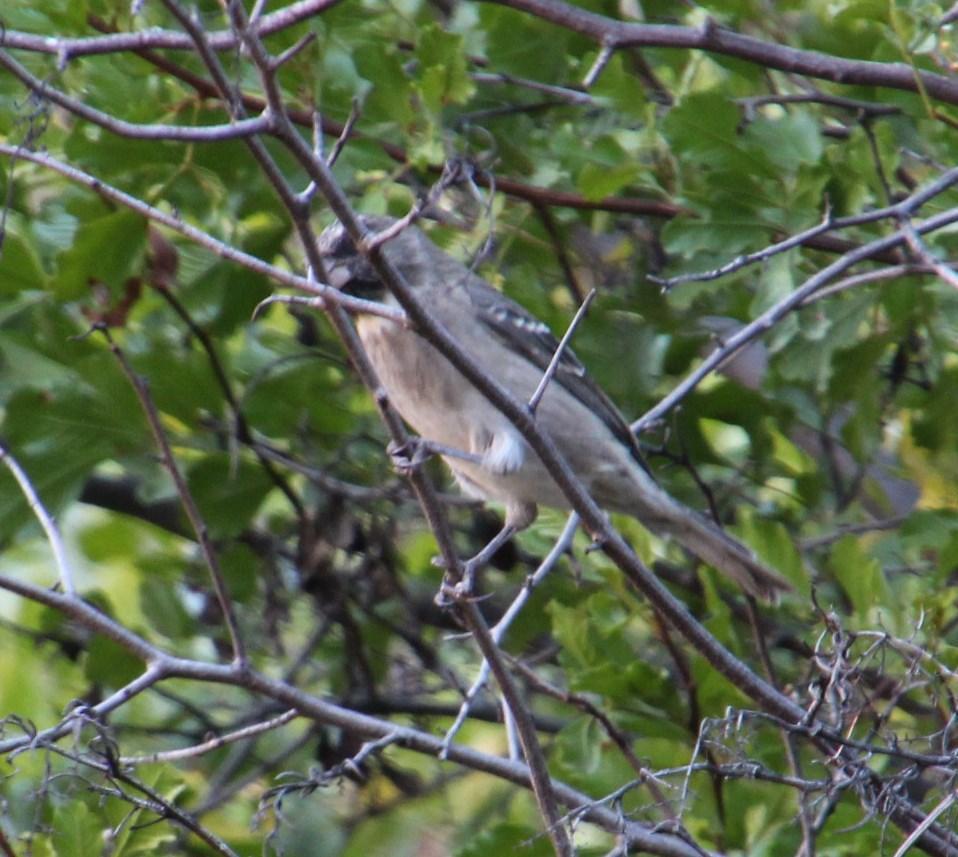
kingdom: Animalia
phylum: Chordata
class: Aves
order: Passeriformes
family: Fringillidae
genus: Crithagra
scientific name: Crithagra leucoptera
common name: Protea canary
